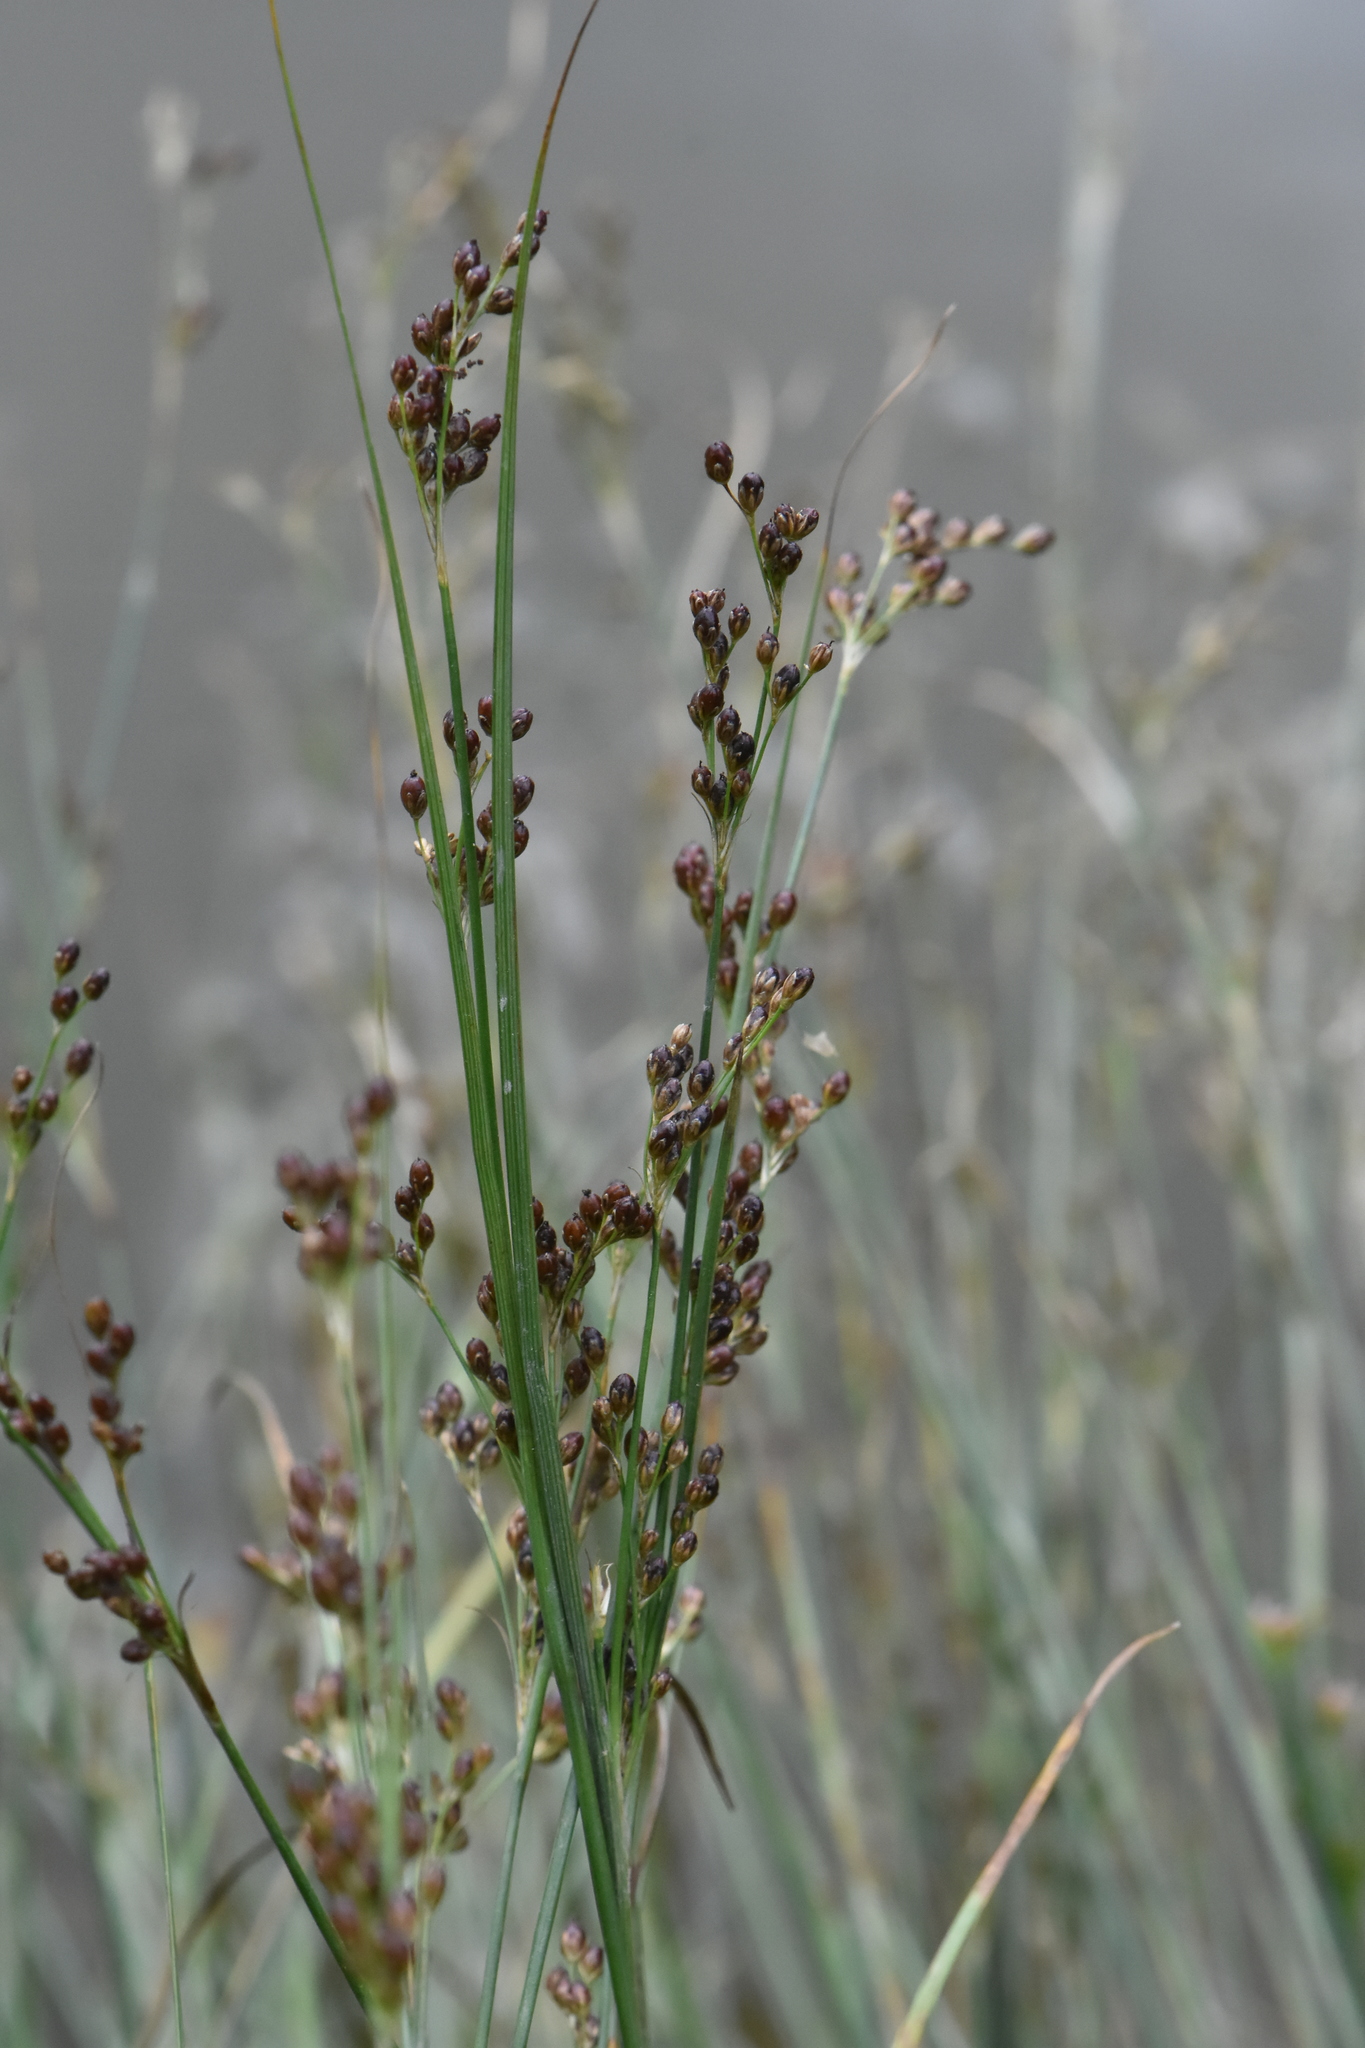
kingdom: Plantae
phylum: Tracheophyta
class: Liliopsida
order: Poales
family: Juncaceae
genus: Juncus
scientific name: Juncus compressus
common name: Round-fruited rush
